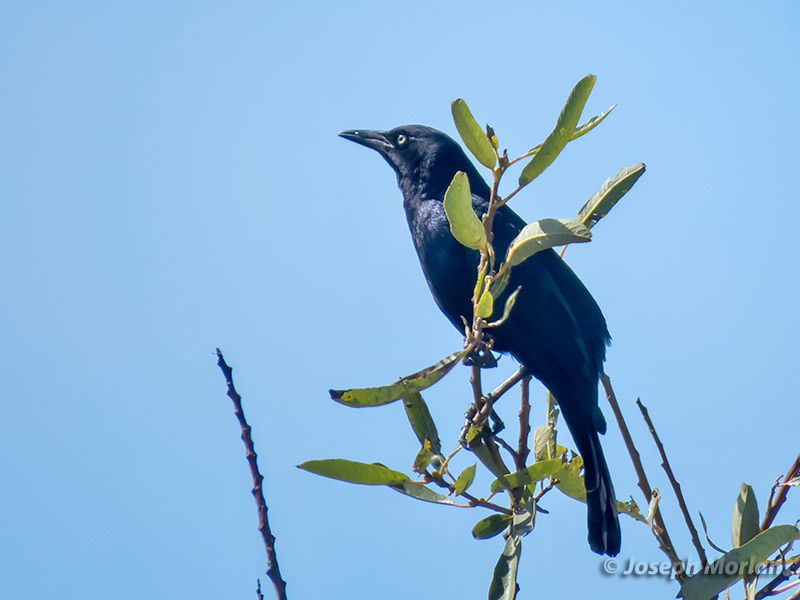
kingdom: Animalia
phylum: Chordata
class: Aves
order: Passeriformes
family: Icteridae
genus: Quiscalus
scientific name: Quiscalus mexicanus
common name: Great-tailed grackle
